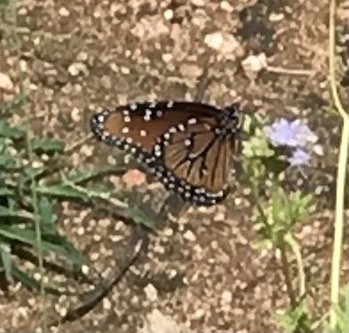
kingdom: Animalia
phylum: Arthropoda
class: Insecta
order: Lepidoptera
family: Nymphalidae
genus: Danaus
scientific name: Danaus gilippus
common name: Queen
